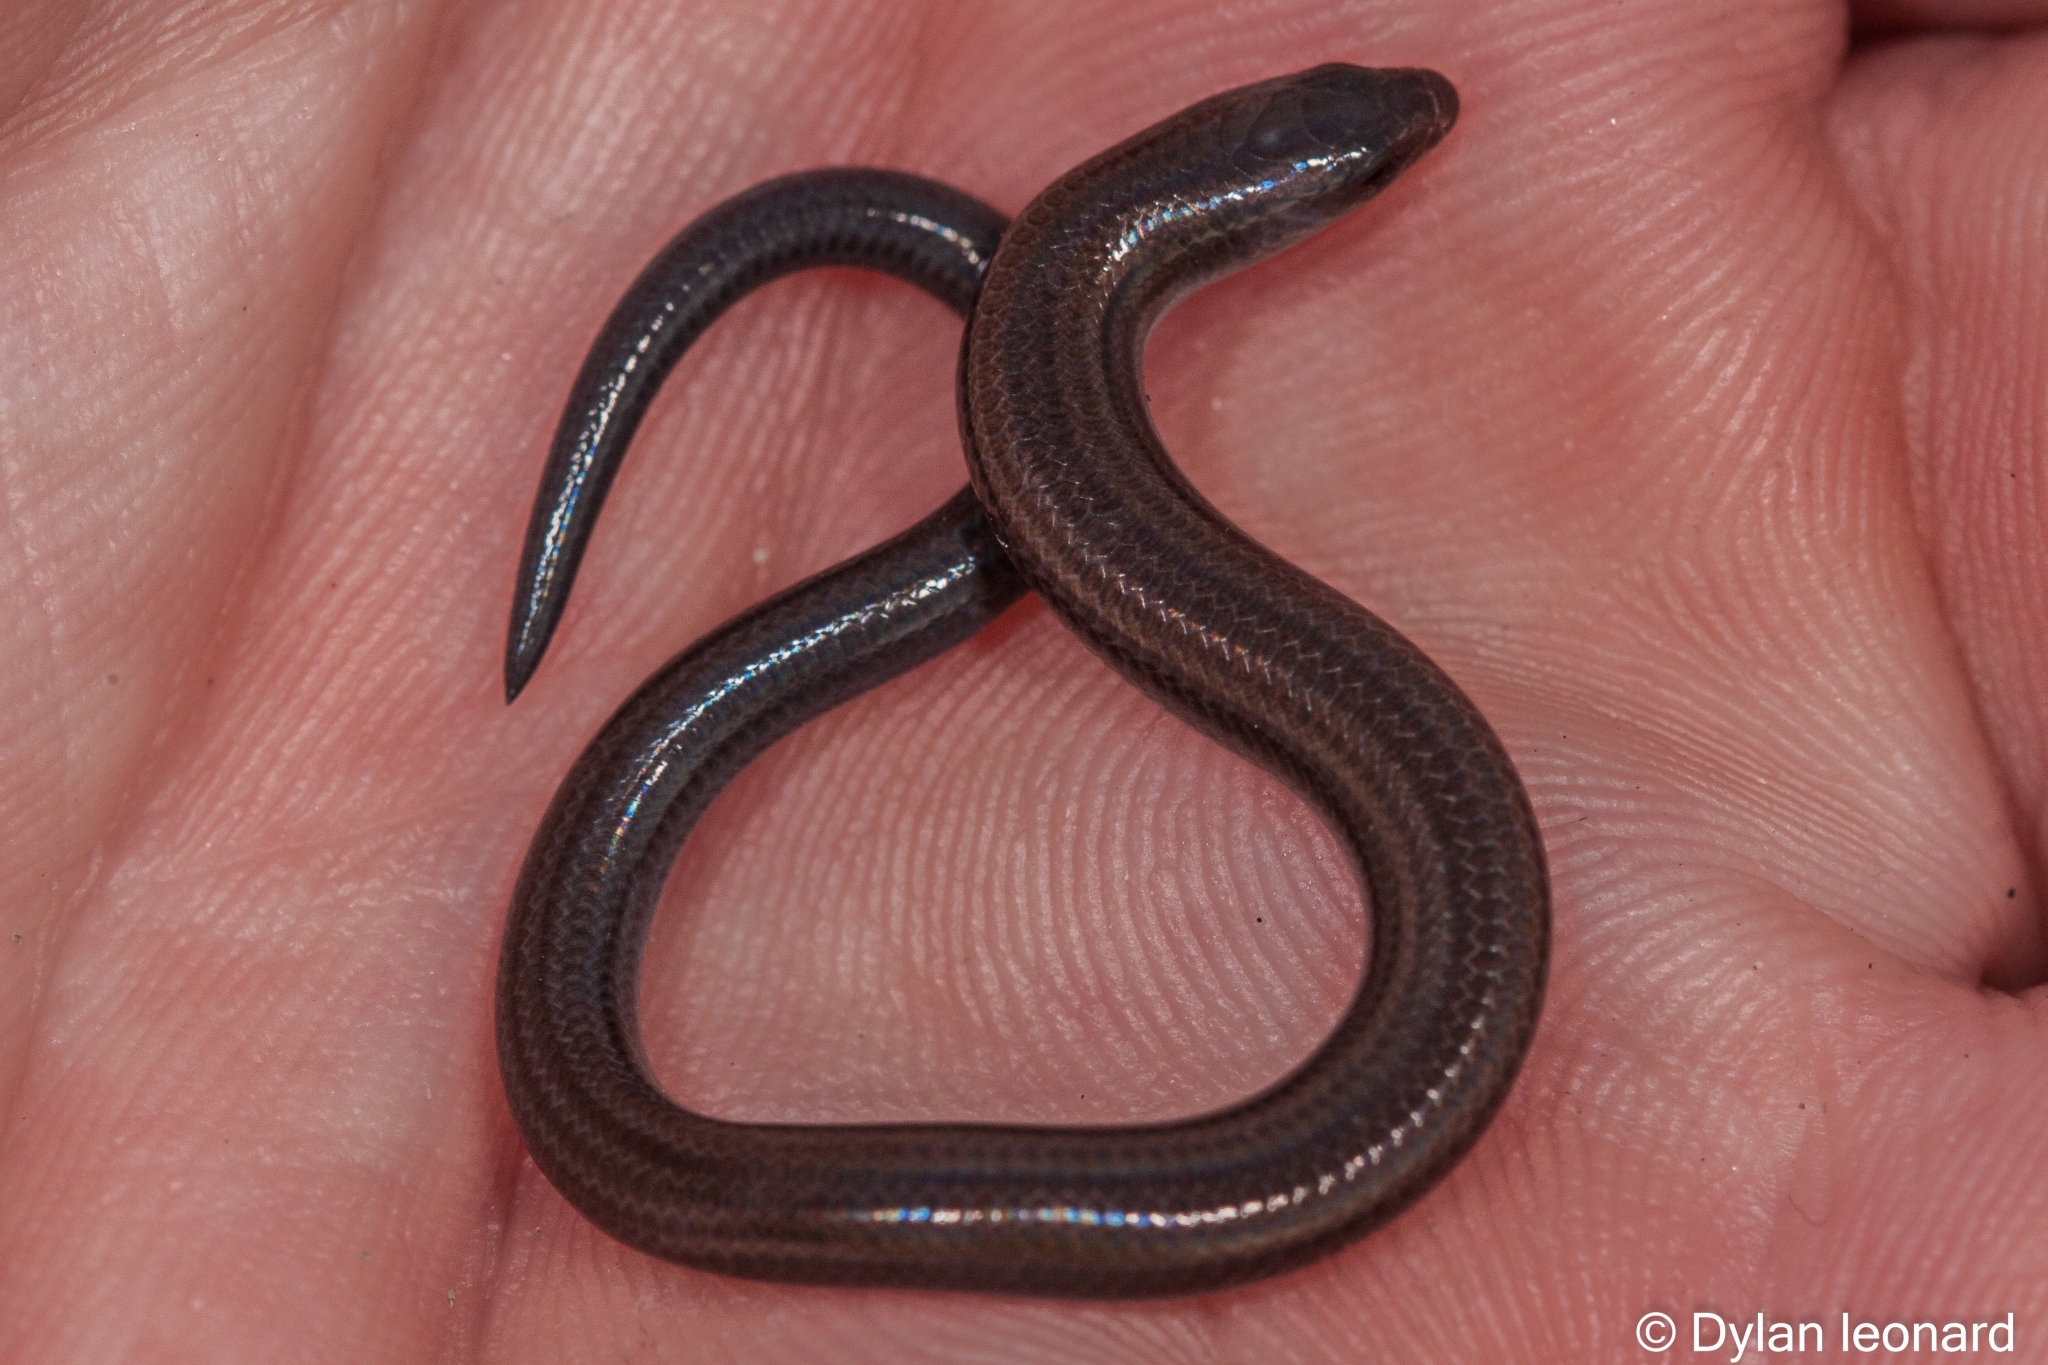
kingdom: Animalia
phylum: Chordata
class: Squamata
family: Scincidae
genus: Scelotes
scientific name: Scelotes fitzsimonsi
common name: Fitzsimons' dwarf burrowing skink
